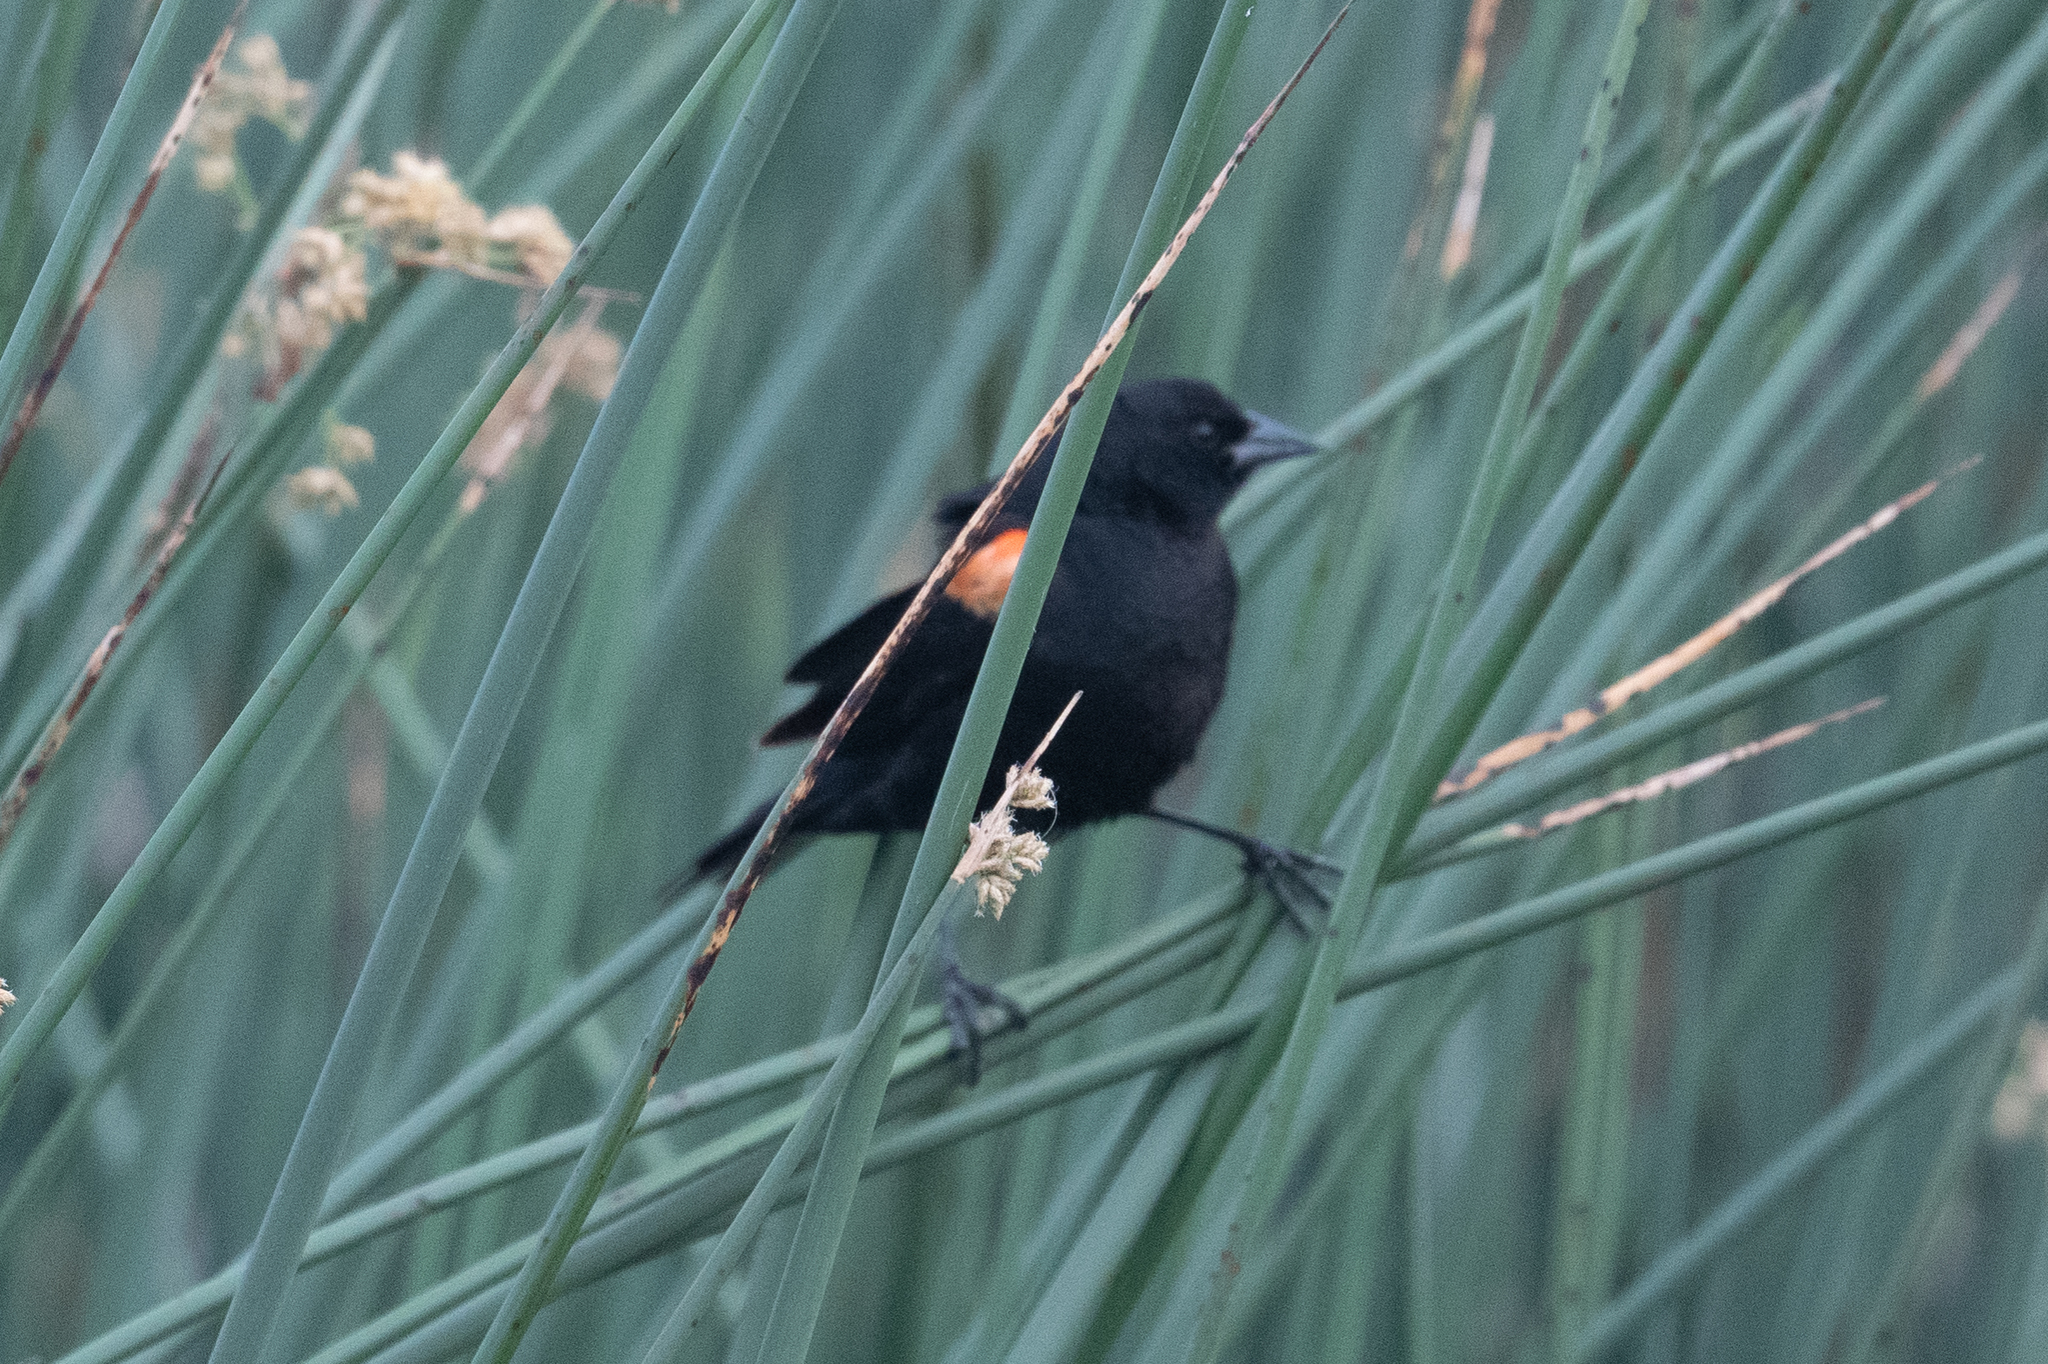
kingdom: Animalia
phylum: Chordata
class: Aves
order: Passeriformes
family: Icteridae
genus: Agelaius
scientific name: Agelaius phoeniceus
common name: Red-winged blackbird
